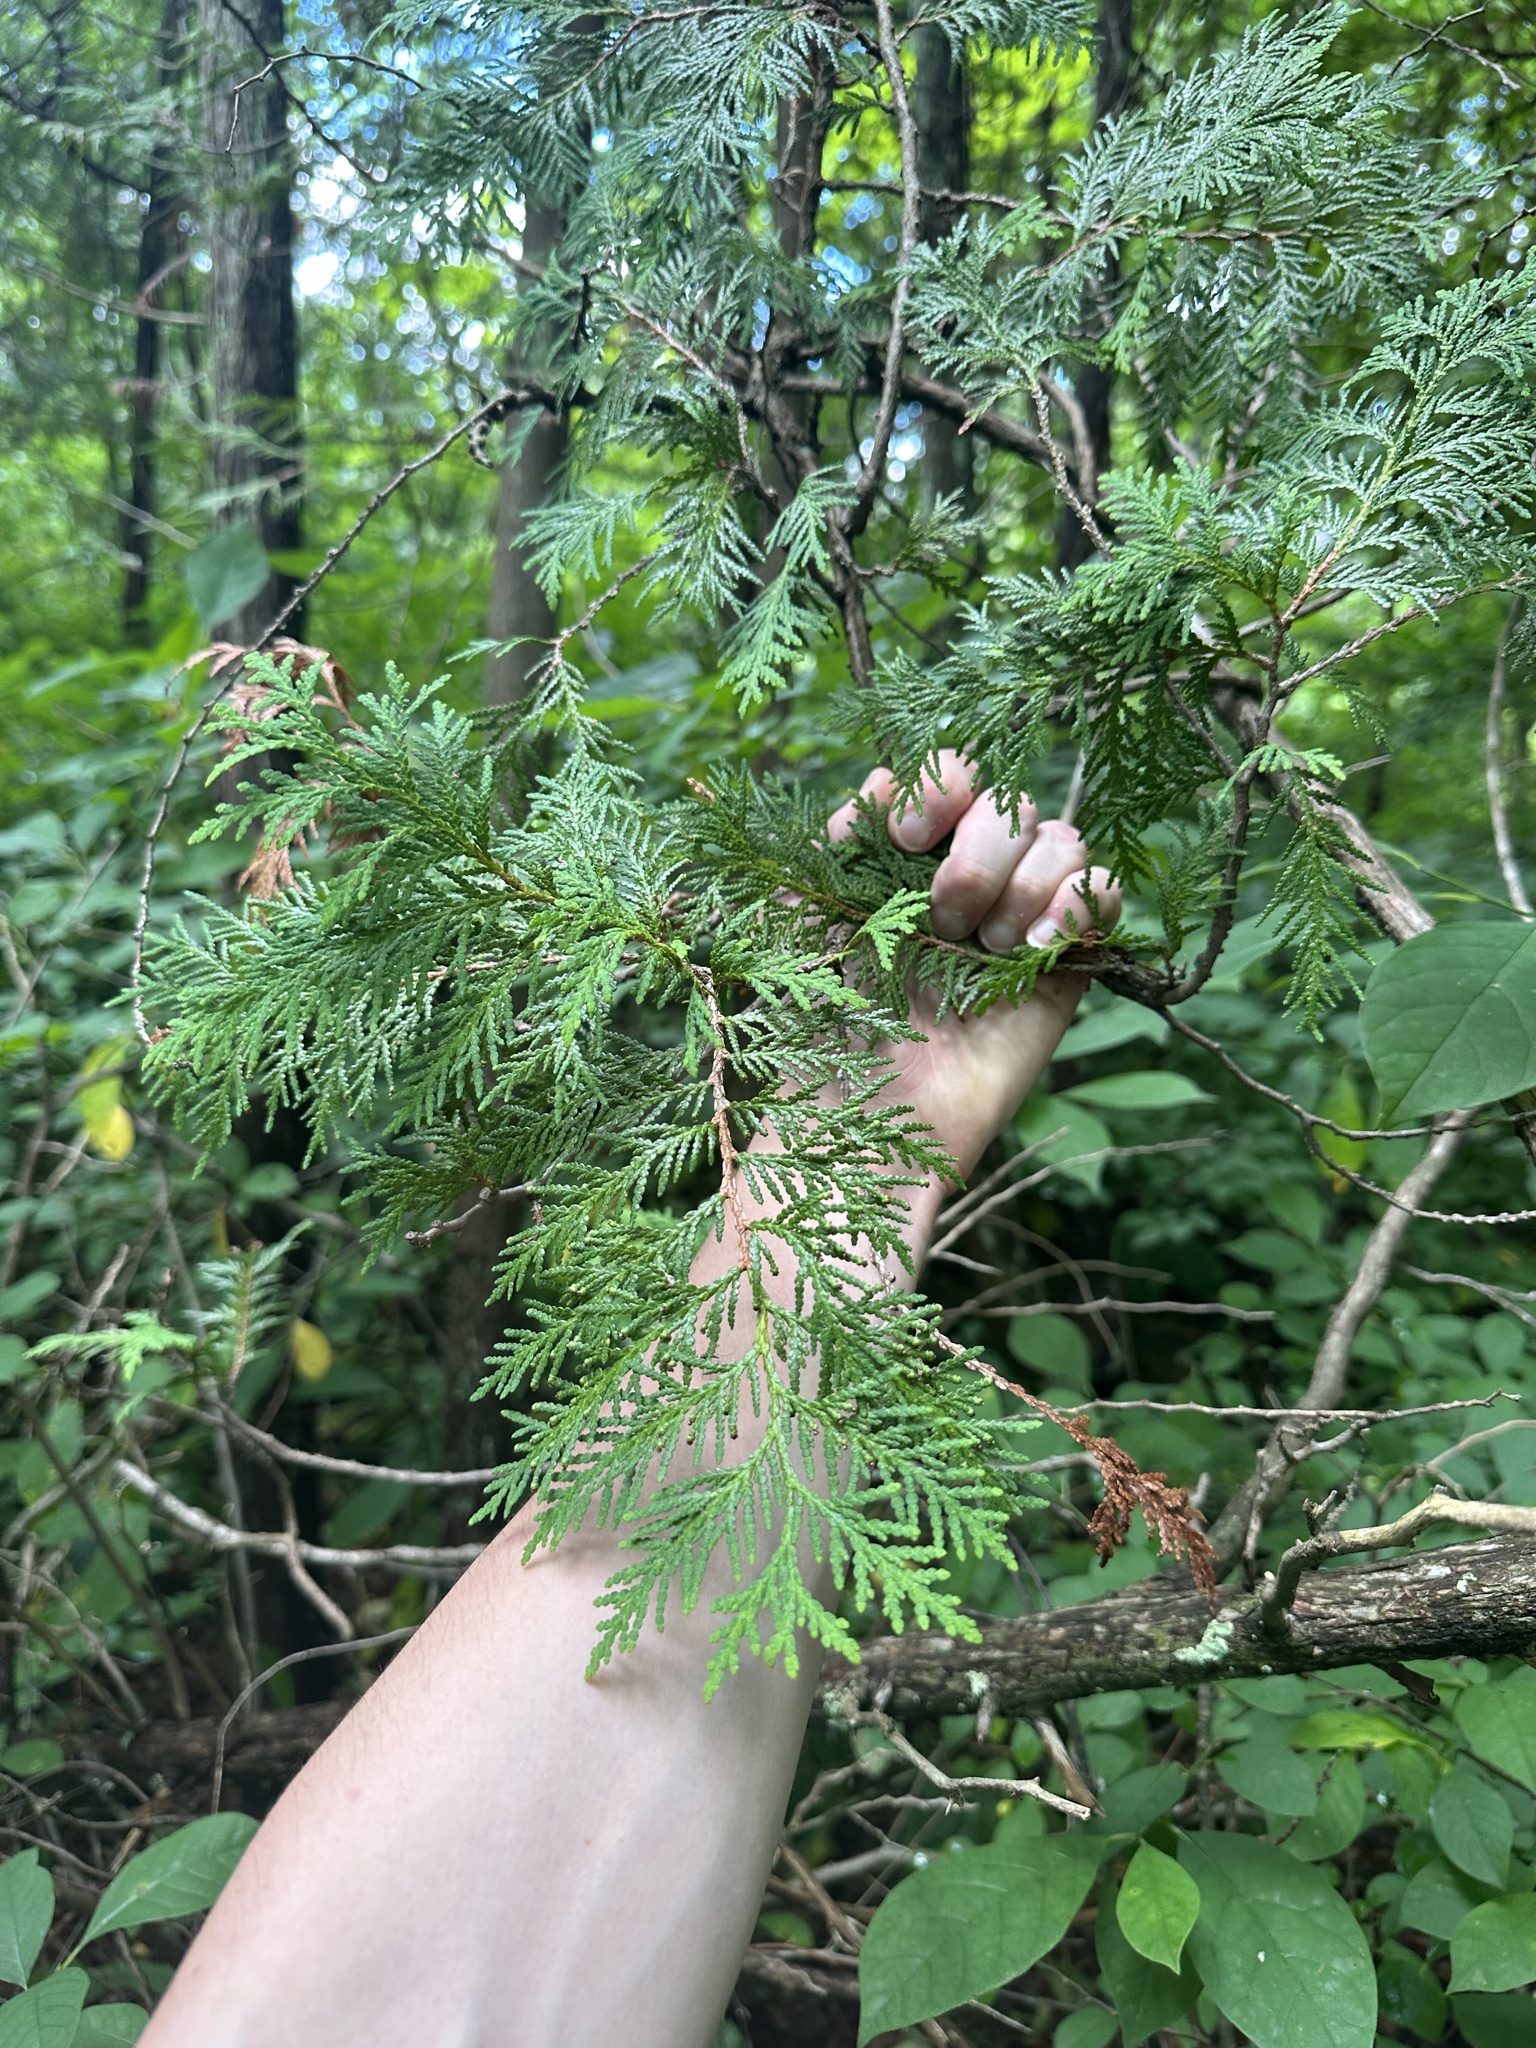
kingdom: Plantae
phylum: Tracheophyta
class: Pinopsida
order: Pinales
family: Cupressaceae
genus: Thuja
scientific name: Thuja occidentalis
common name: Northern white-cedar
